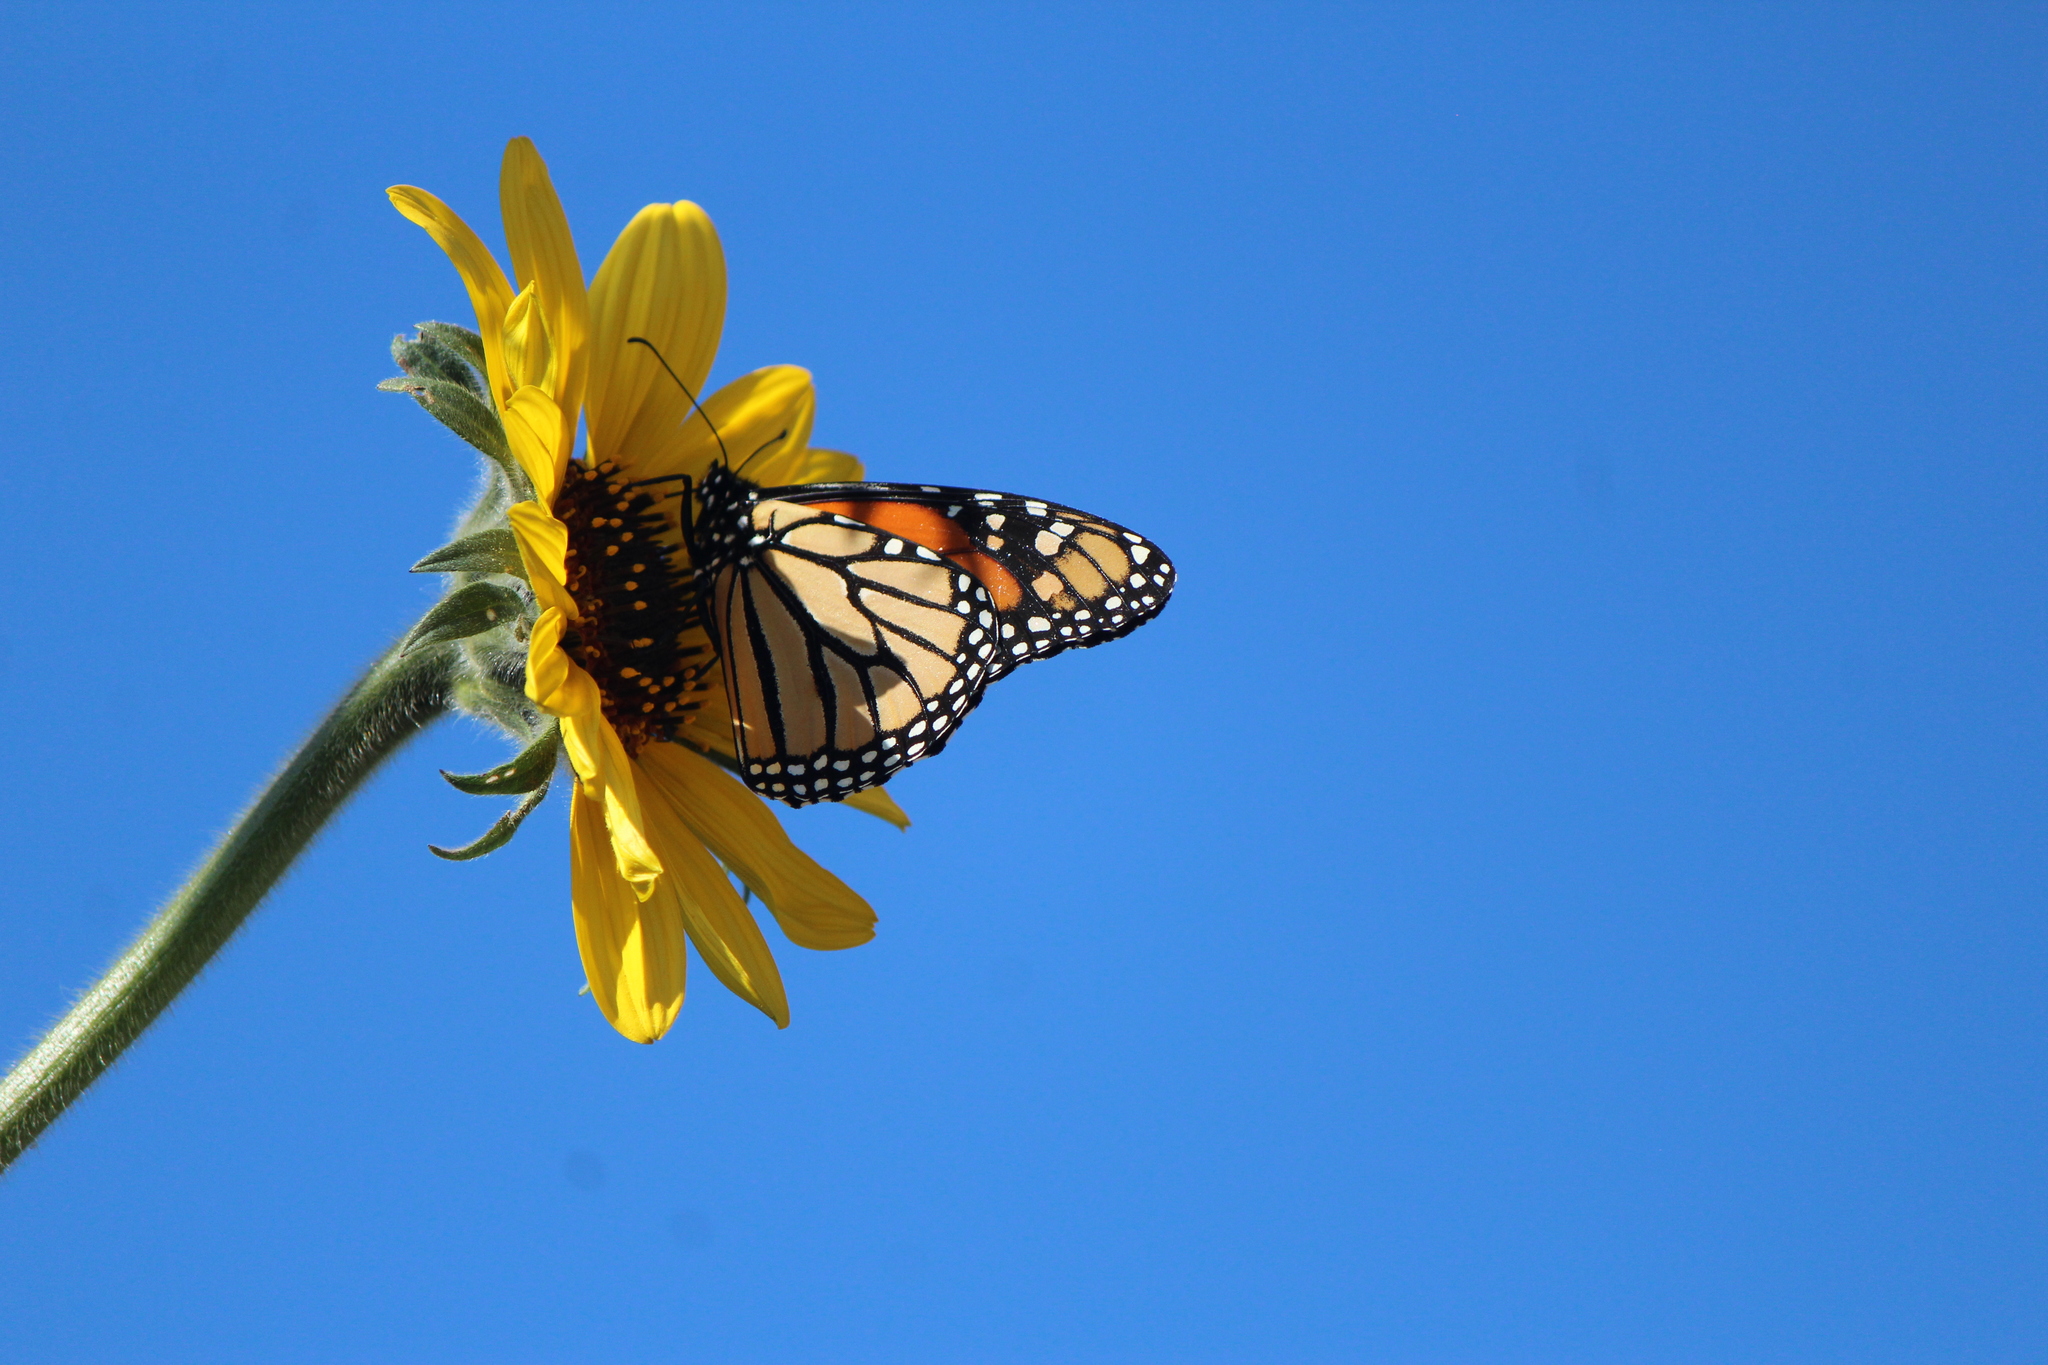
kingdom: Animalia
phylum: Arthropoda
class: Insecta
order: Lepidoptera
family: Nymphalidae
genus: Danaus
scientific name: Danaus plexippus
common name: Monarch
